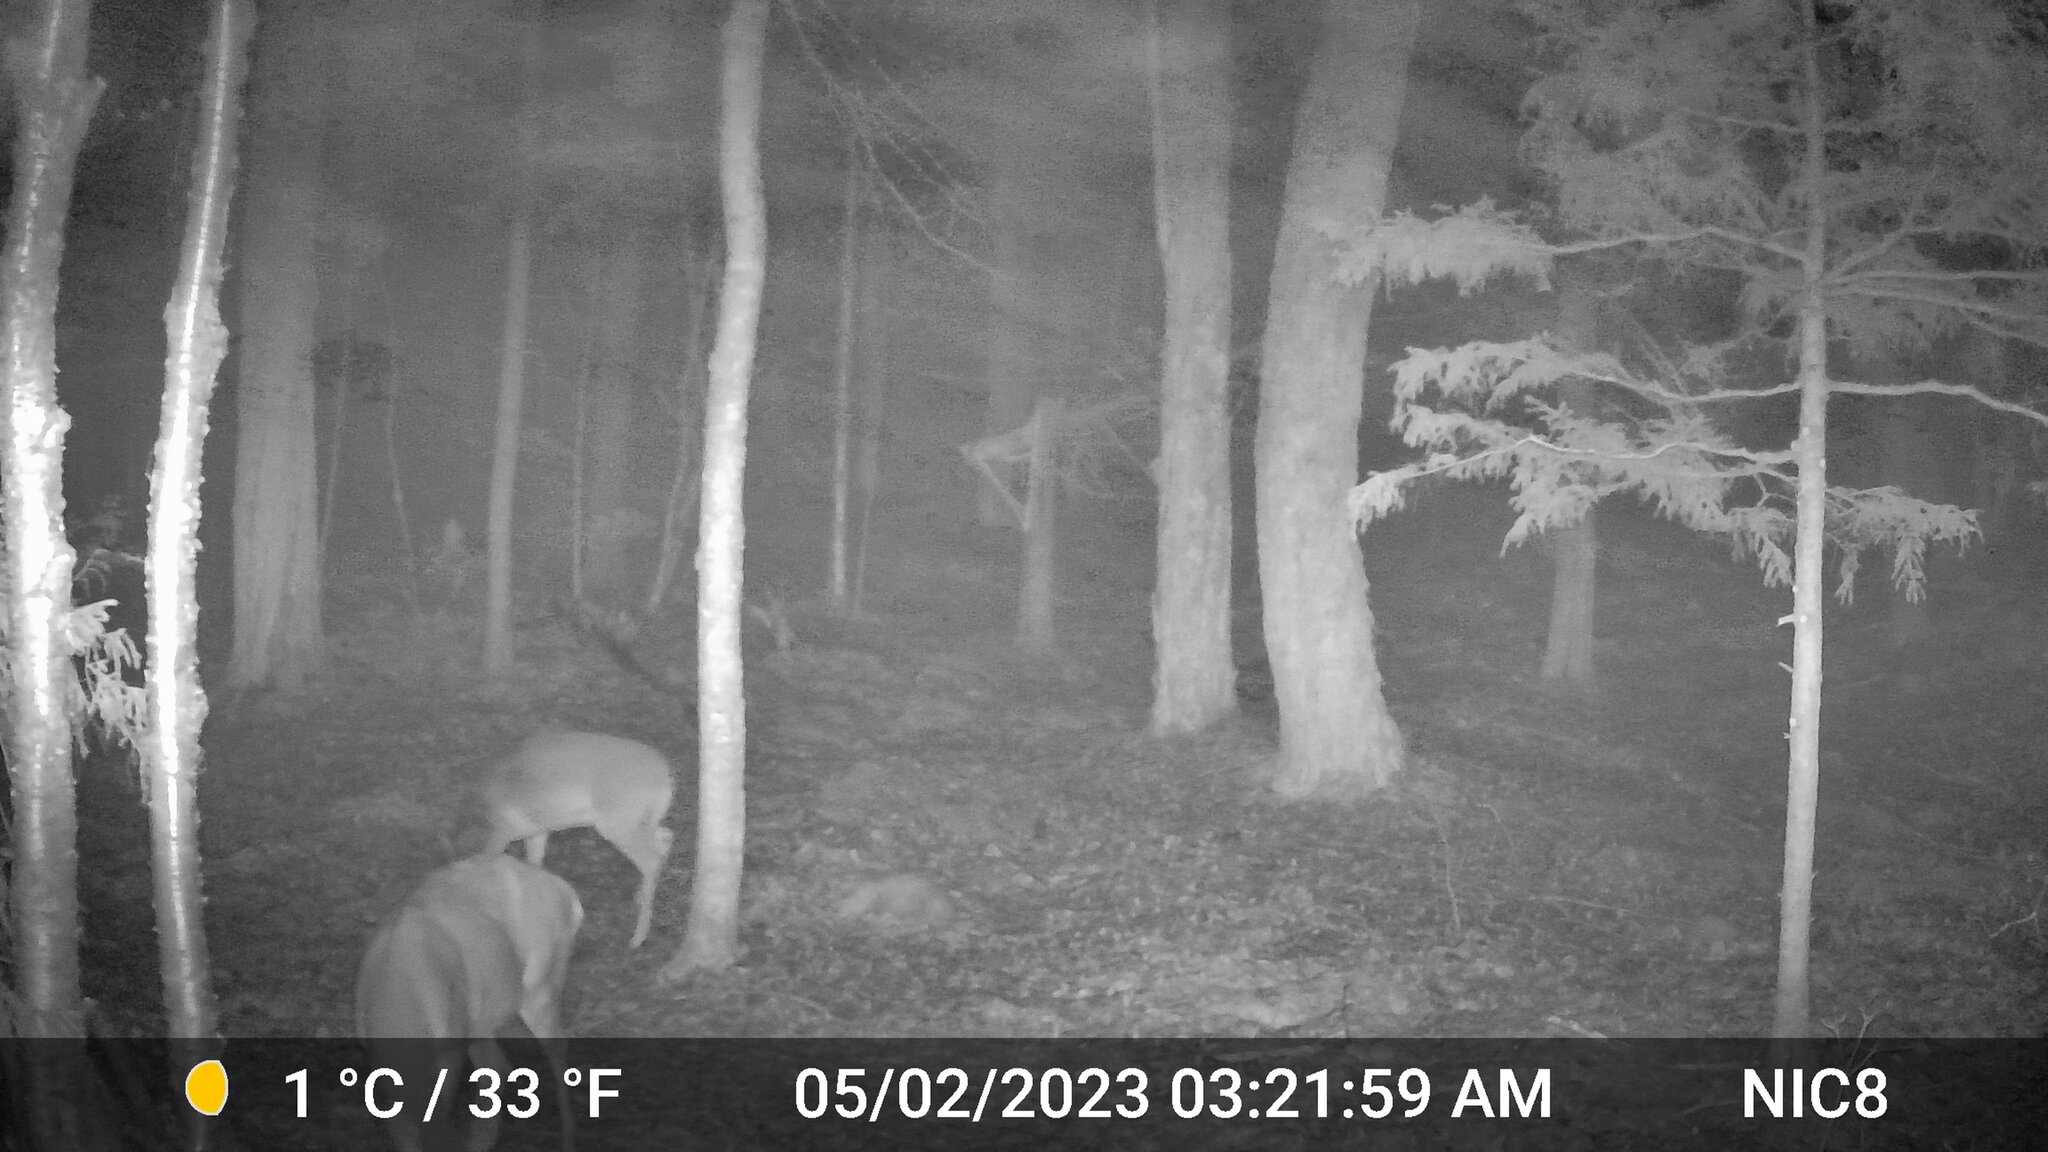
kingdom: Animalia
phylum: Chordata
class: Mammalia
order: Artiodactyla
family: Cervidae
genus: Odocoileus
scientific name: Odocoileus virginianus
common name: White-tailed deer
